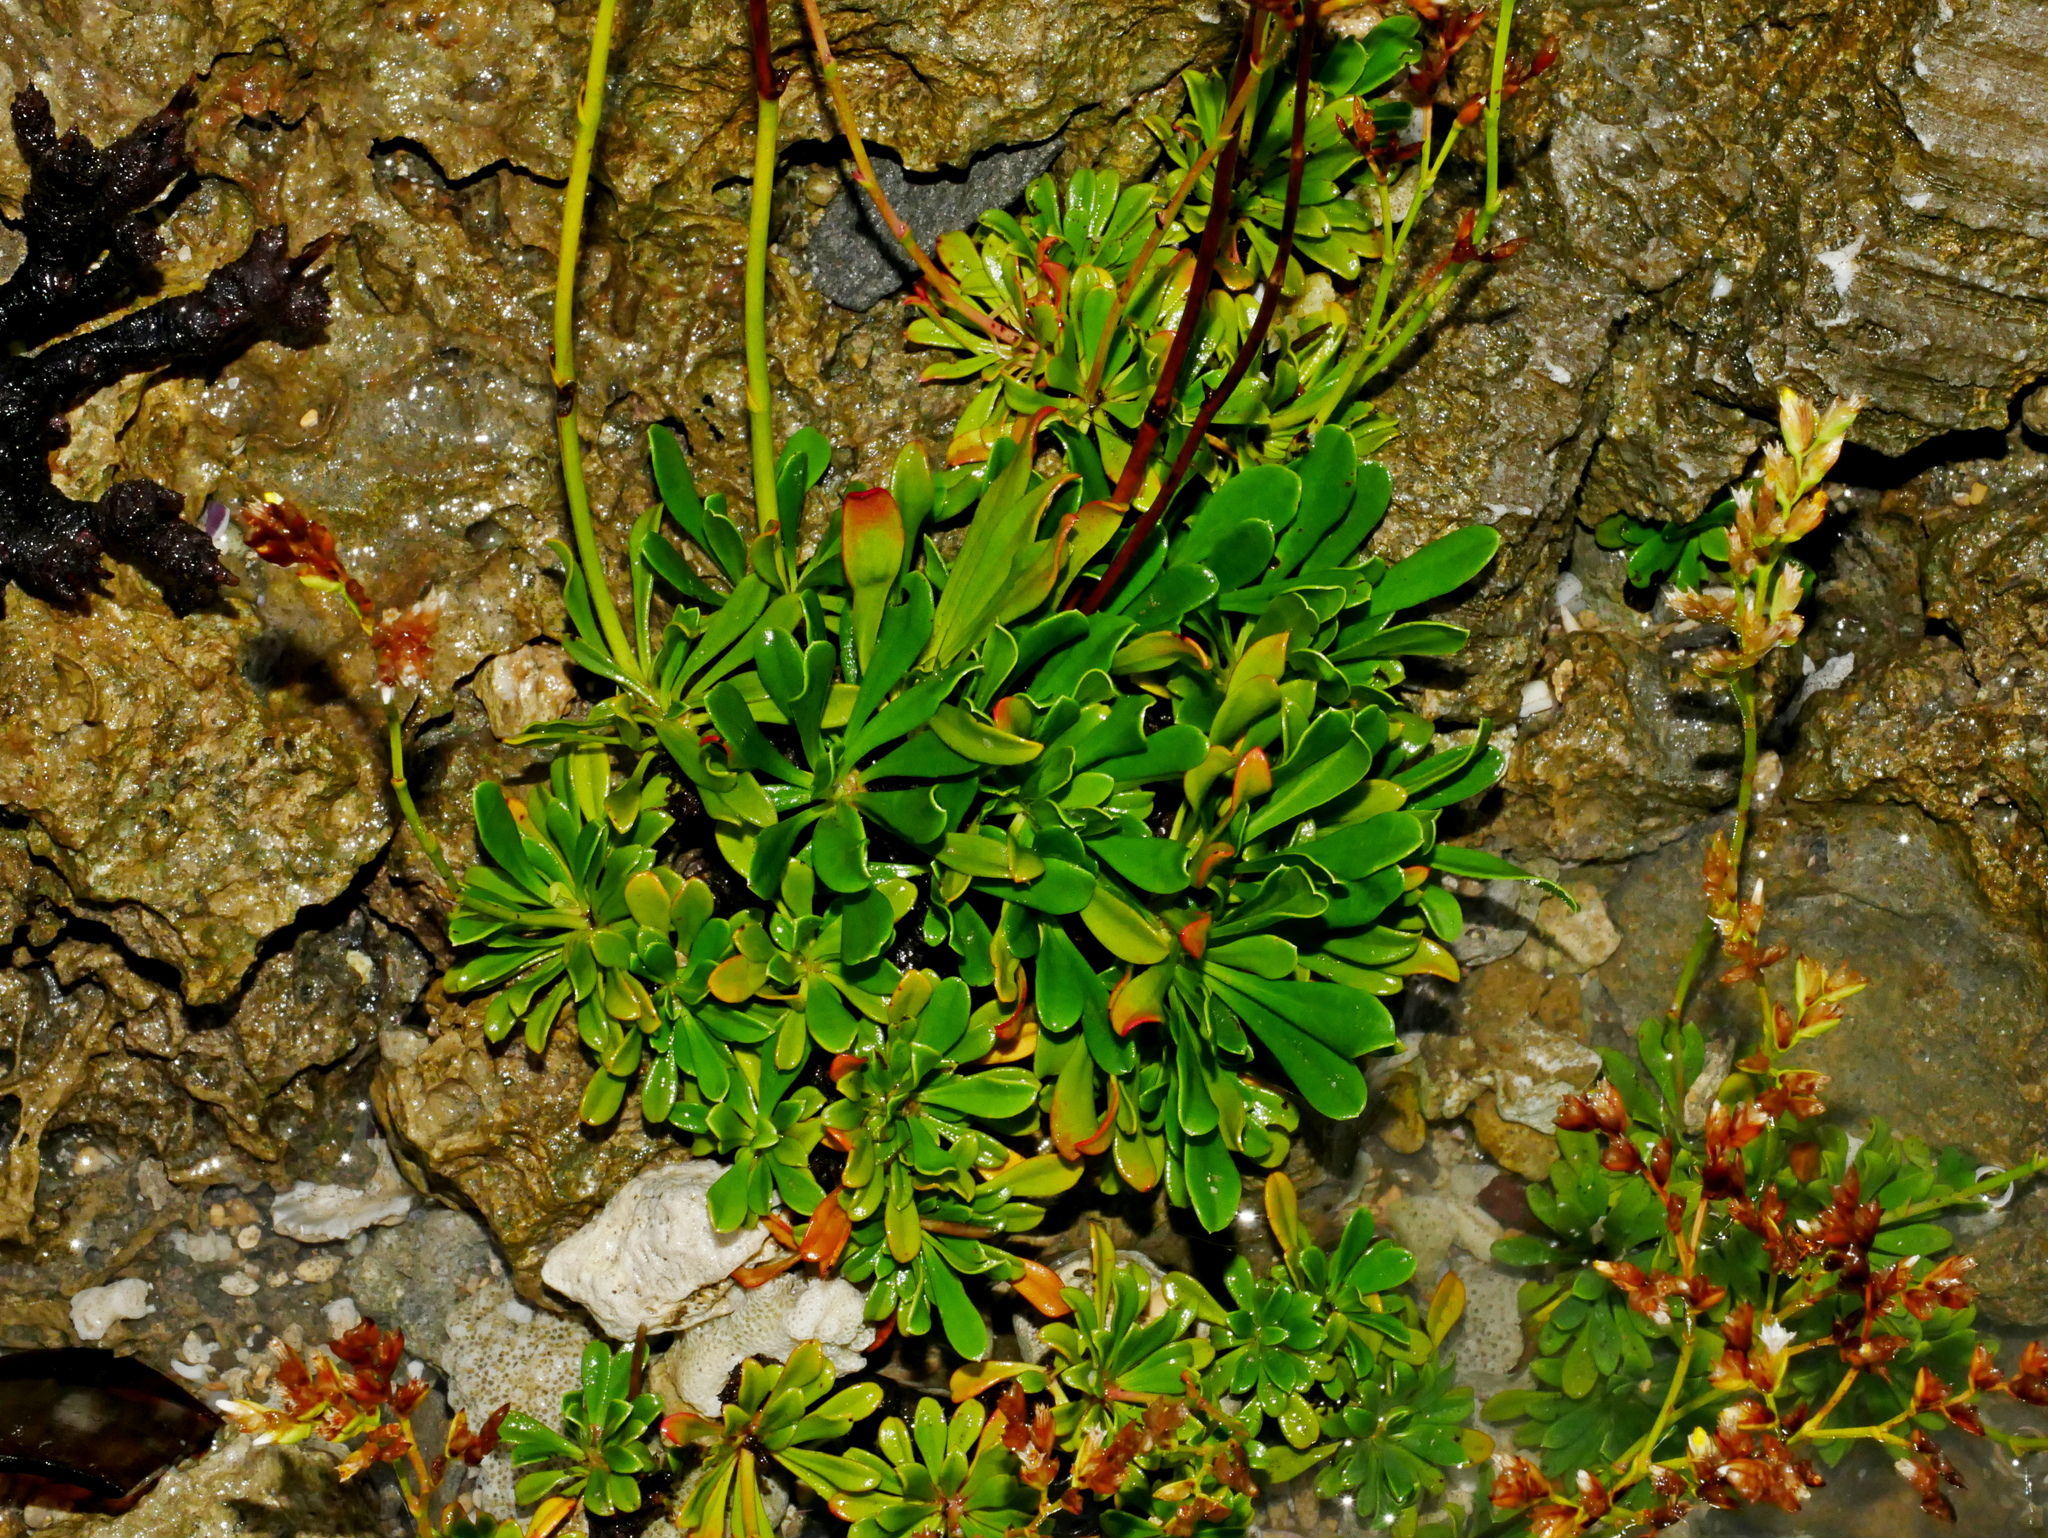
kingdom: Plantae
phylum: Tracheophyta
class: Magnoliopsida
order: Caryophyllales
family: Plumbaginaceae
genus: Limonium
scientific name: Limonium wrightii
